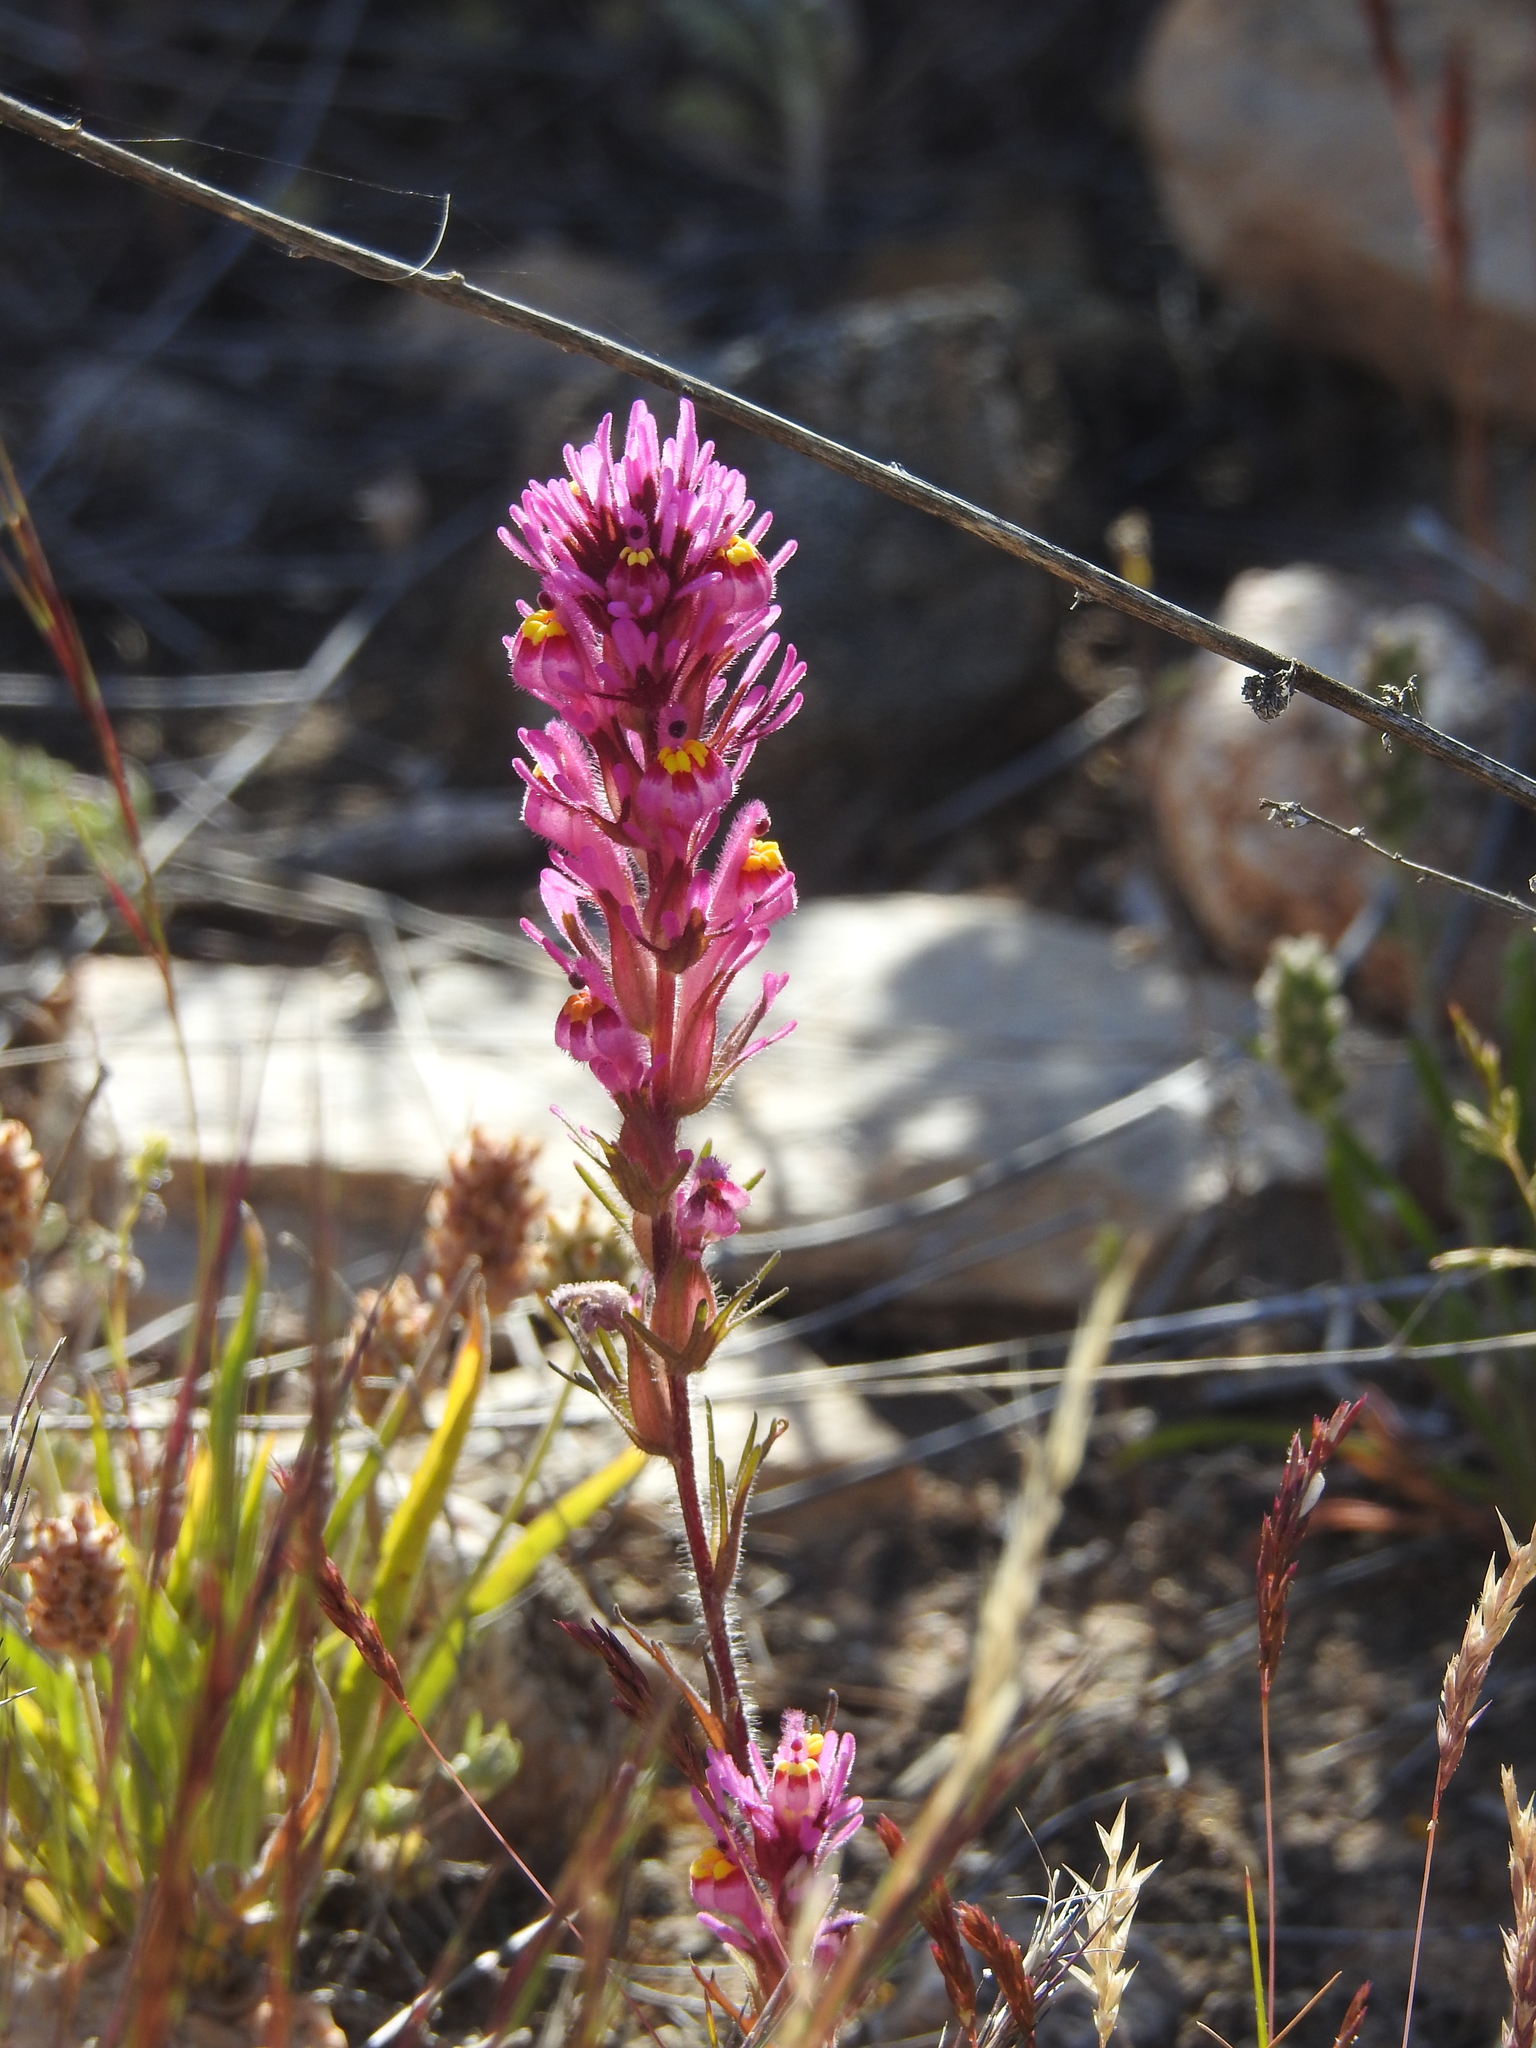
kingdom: Plantae
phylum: Tracheophyta
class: Magnoliopsida
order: Lamiales
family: Orobanchaceae
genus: Castilleja
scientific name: Castilleja exserta
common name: Purple owl-clover
